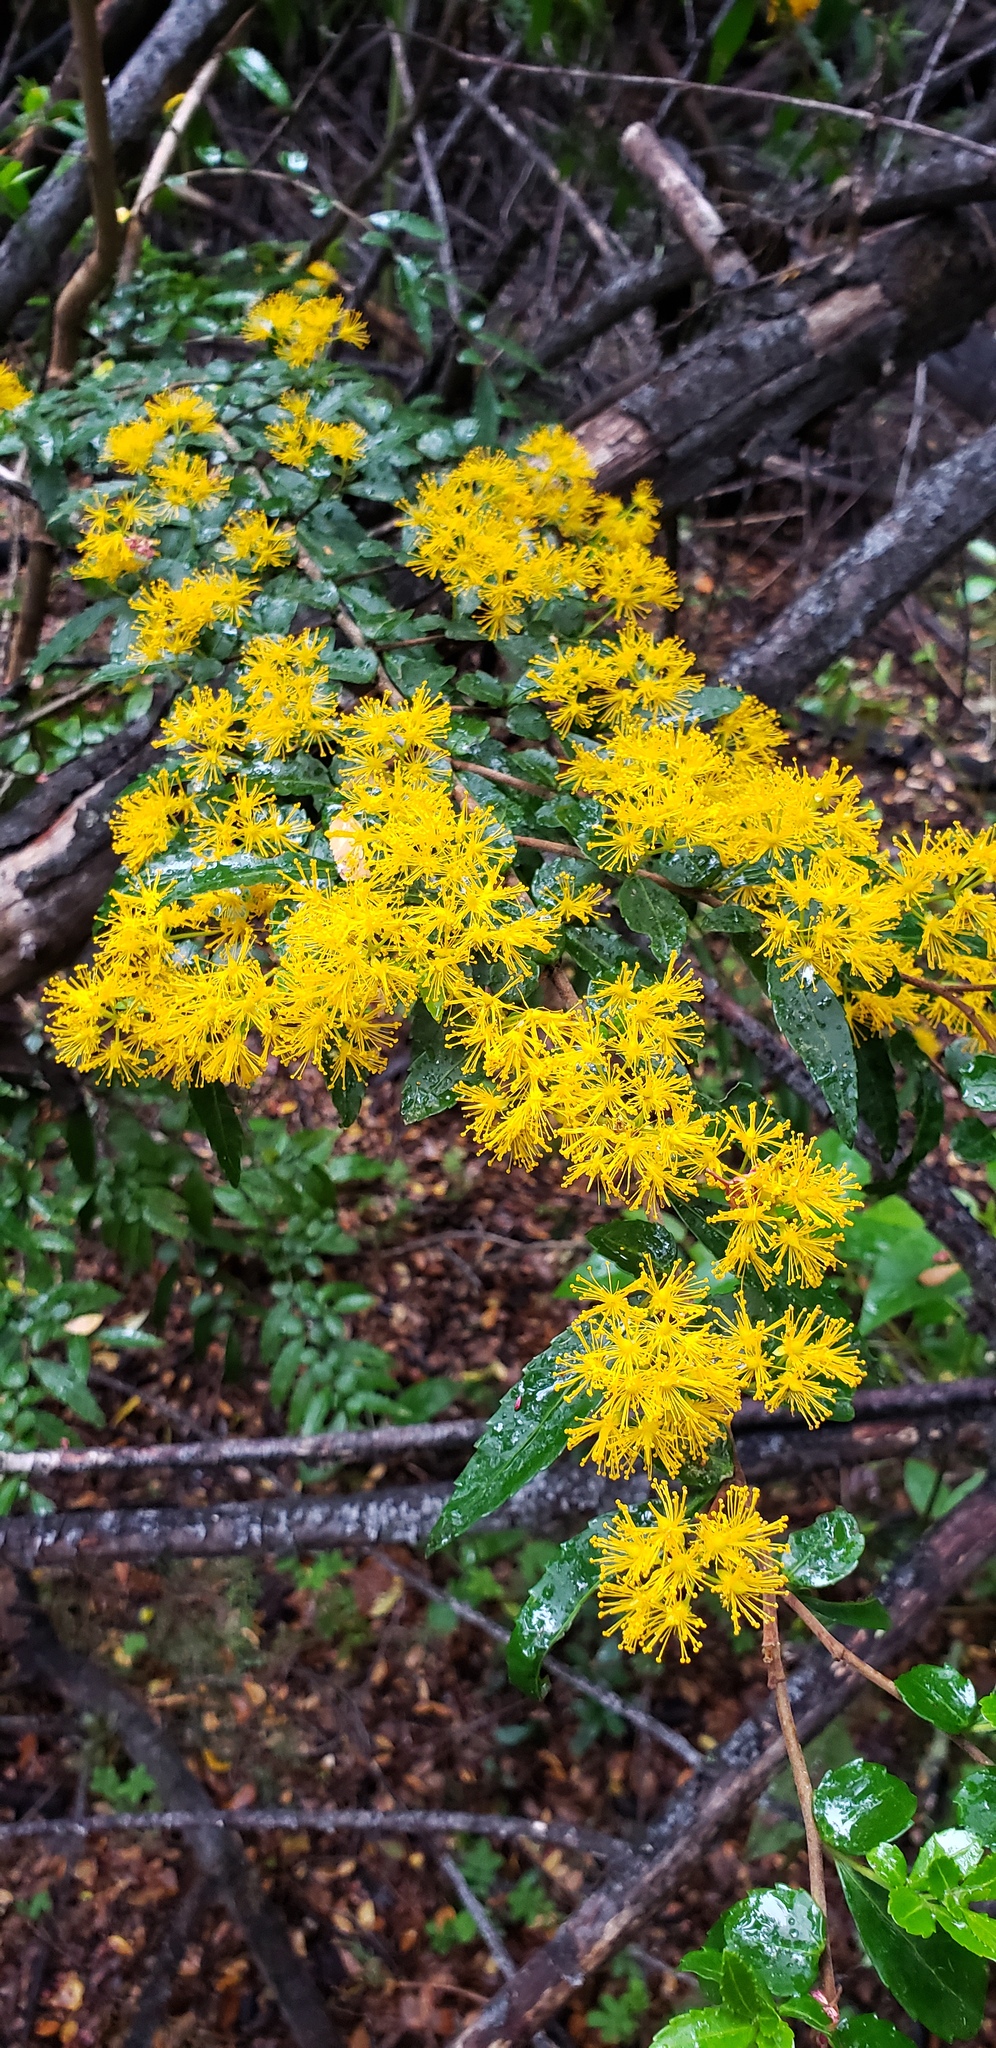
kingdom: Plantae
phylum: Tracheophyta
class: Magnoliopsida
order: Malpighiales
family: Salicaceae
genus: Azara
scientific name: Azara lanceolata
